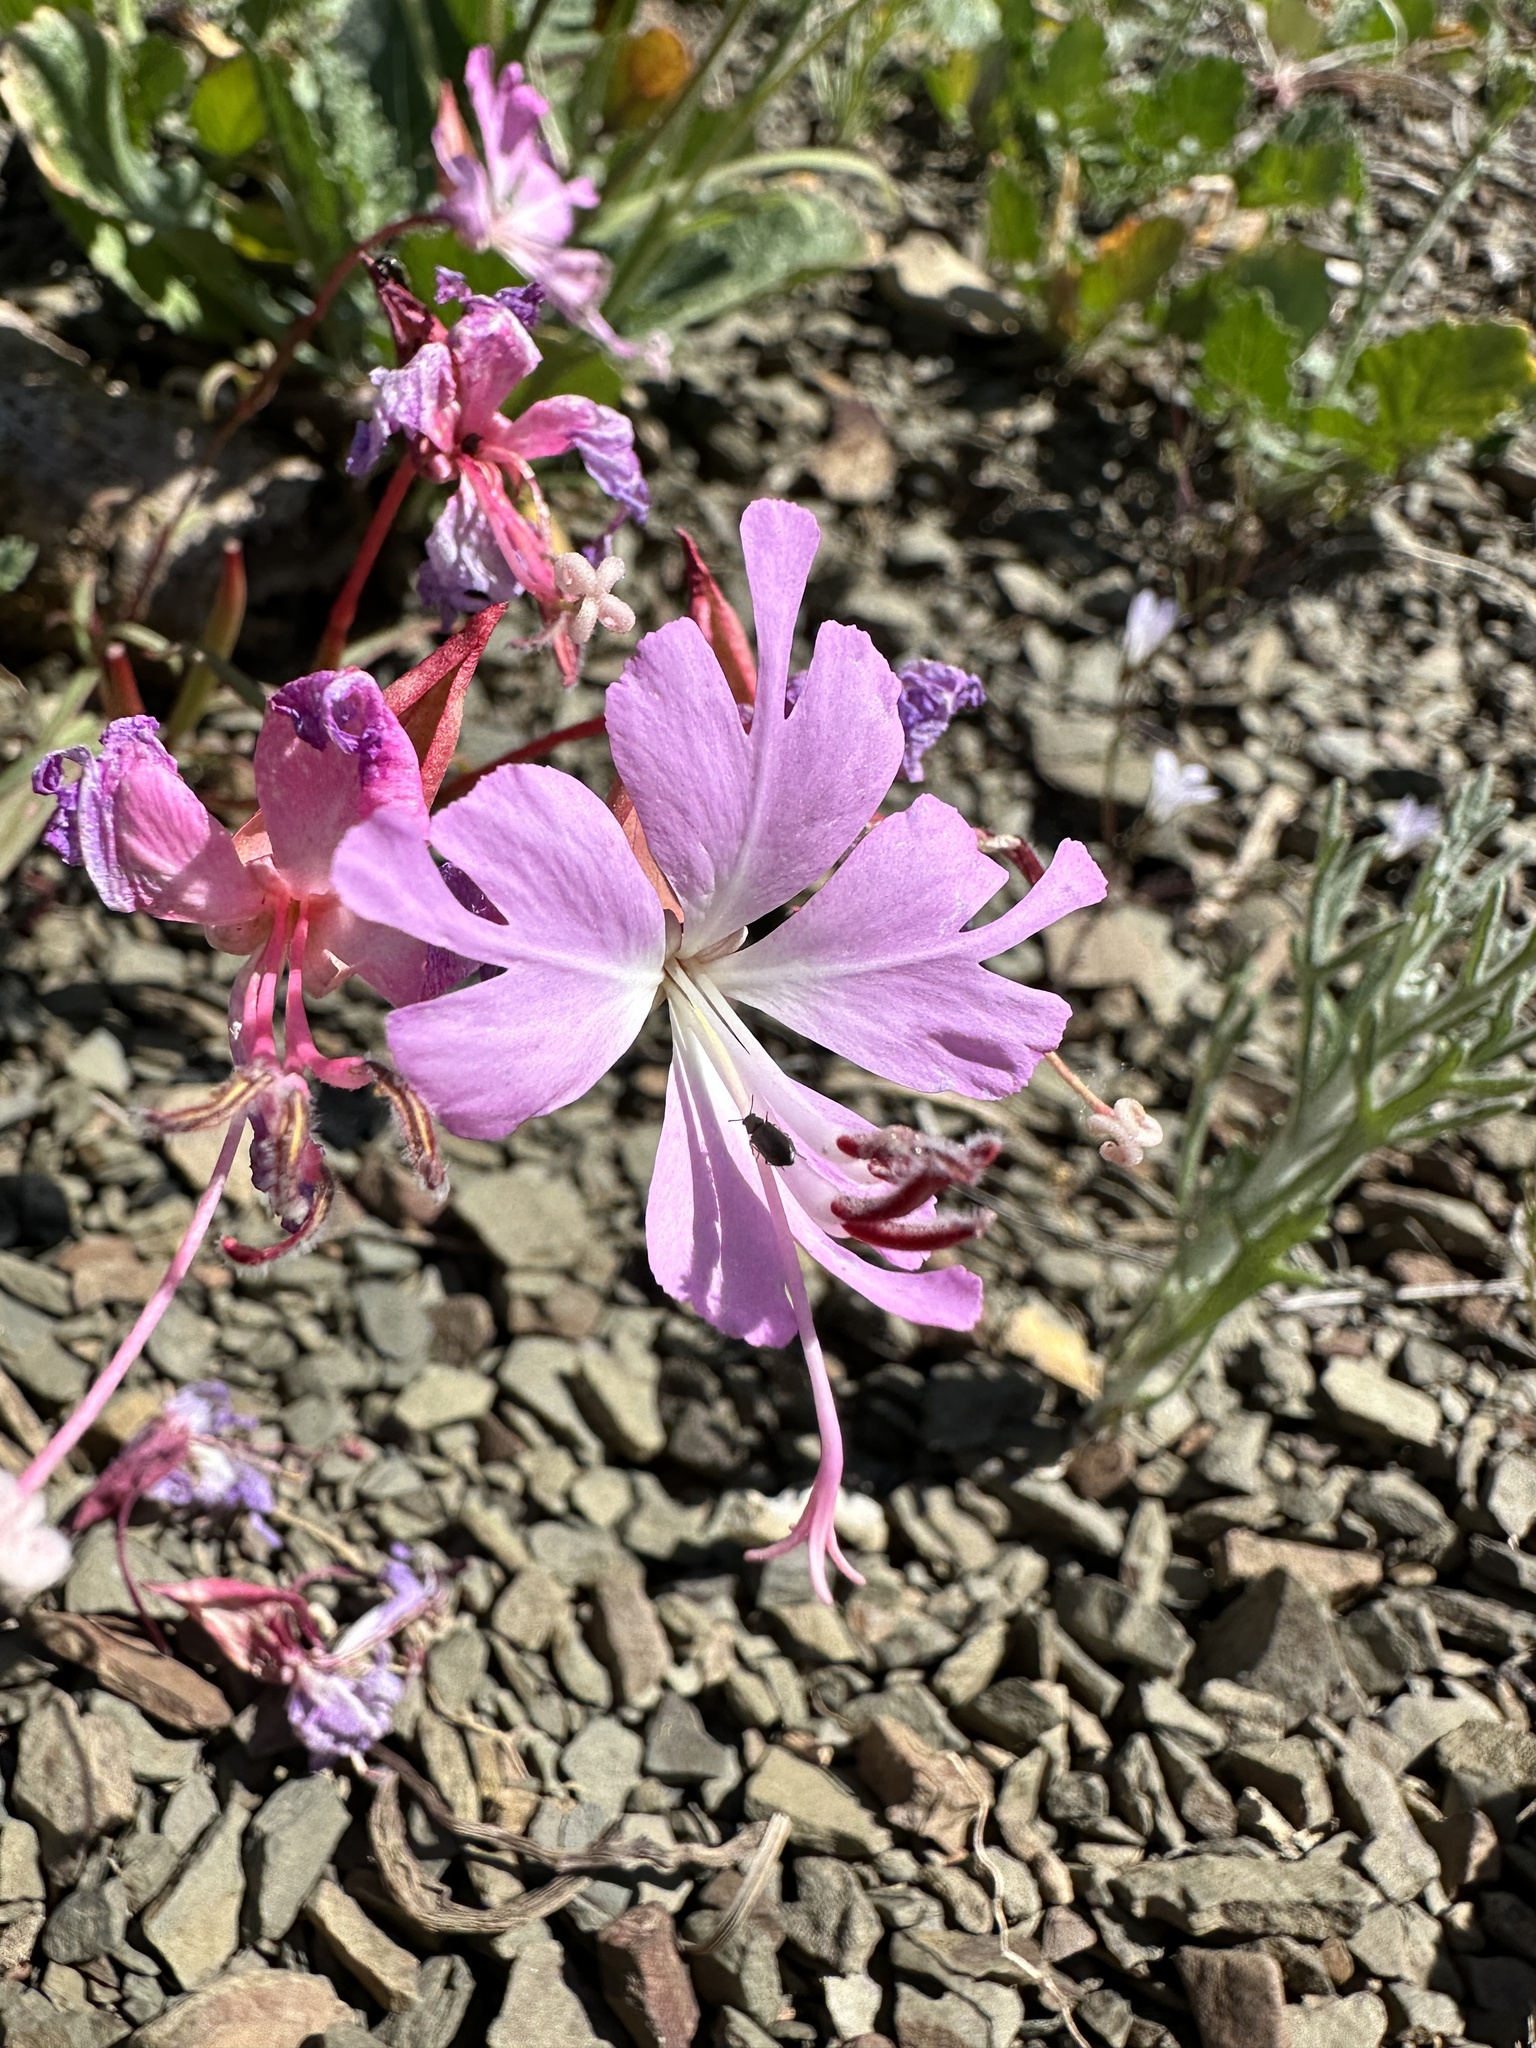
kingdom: Plantae
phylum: Tracheophyta
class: Magnoliopsida
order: Myrtales
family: Onagraceae
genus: Clarkia
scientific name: Clarkia breweri
